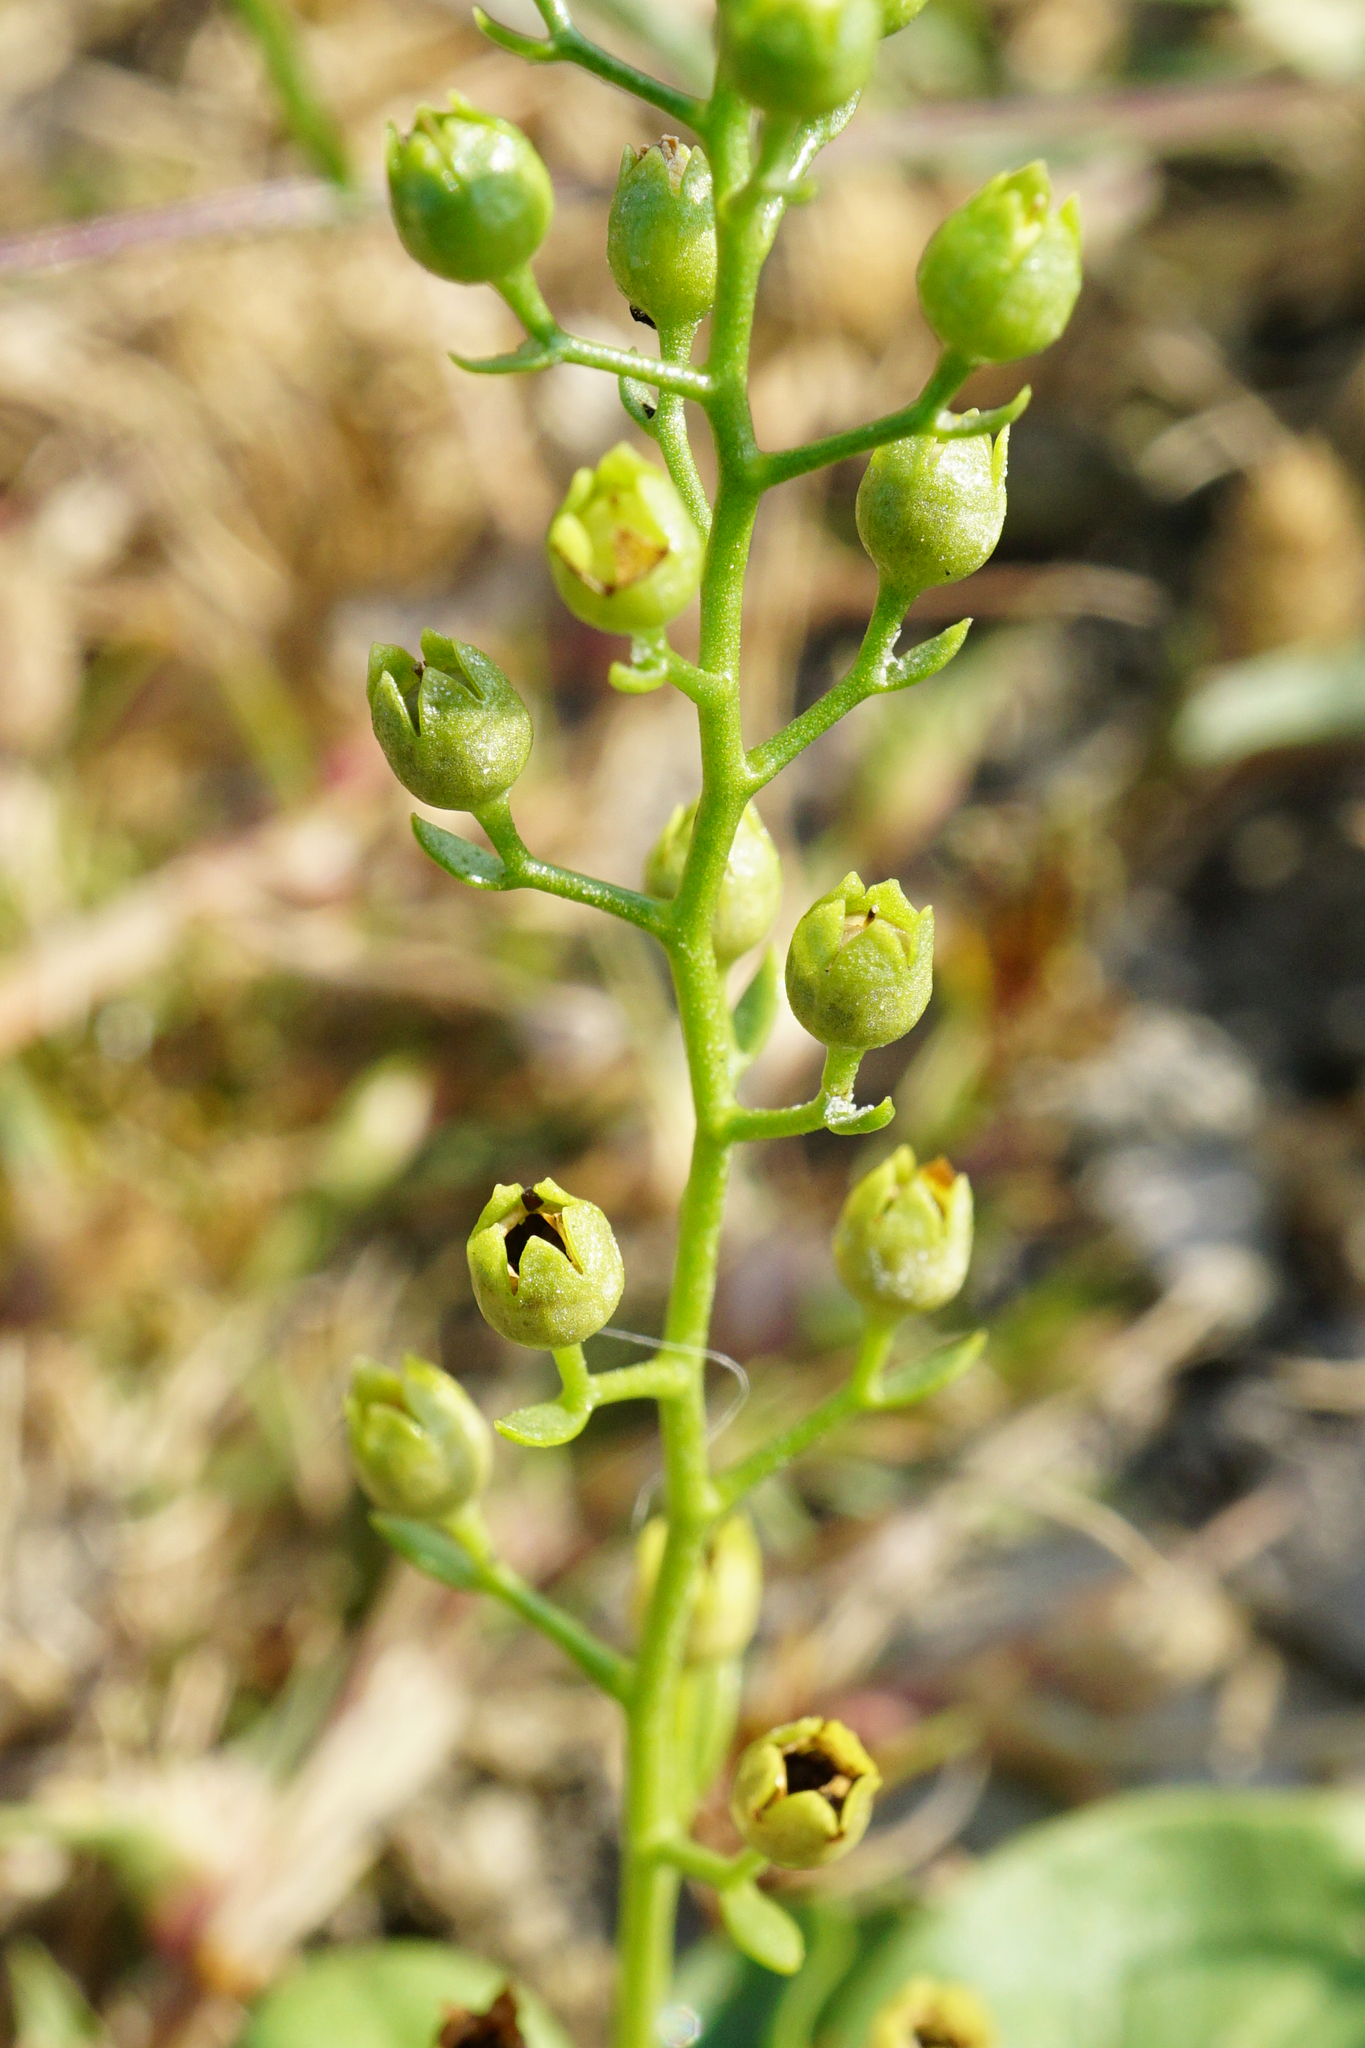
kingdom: Plantae
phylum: Tracheophyta
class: Magnoliopsida
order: Ericales
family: Primulaceae
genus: Samolus
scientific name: Samolus valerandi
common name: Brookweed
